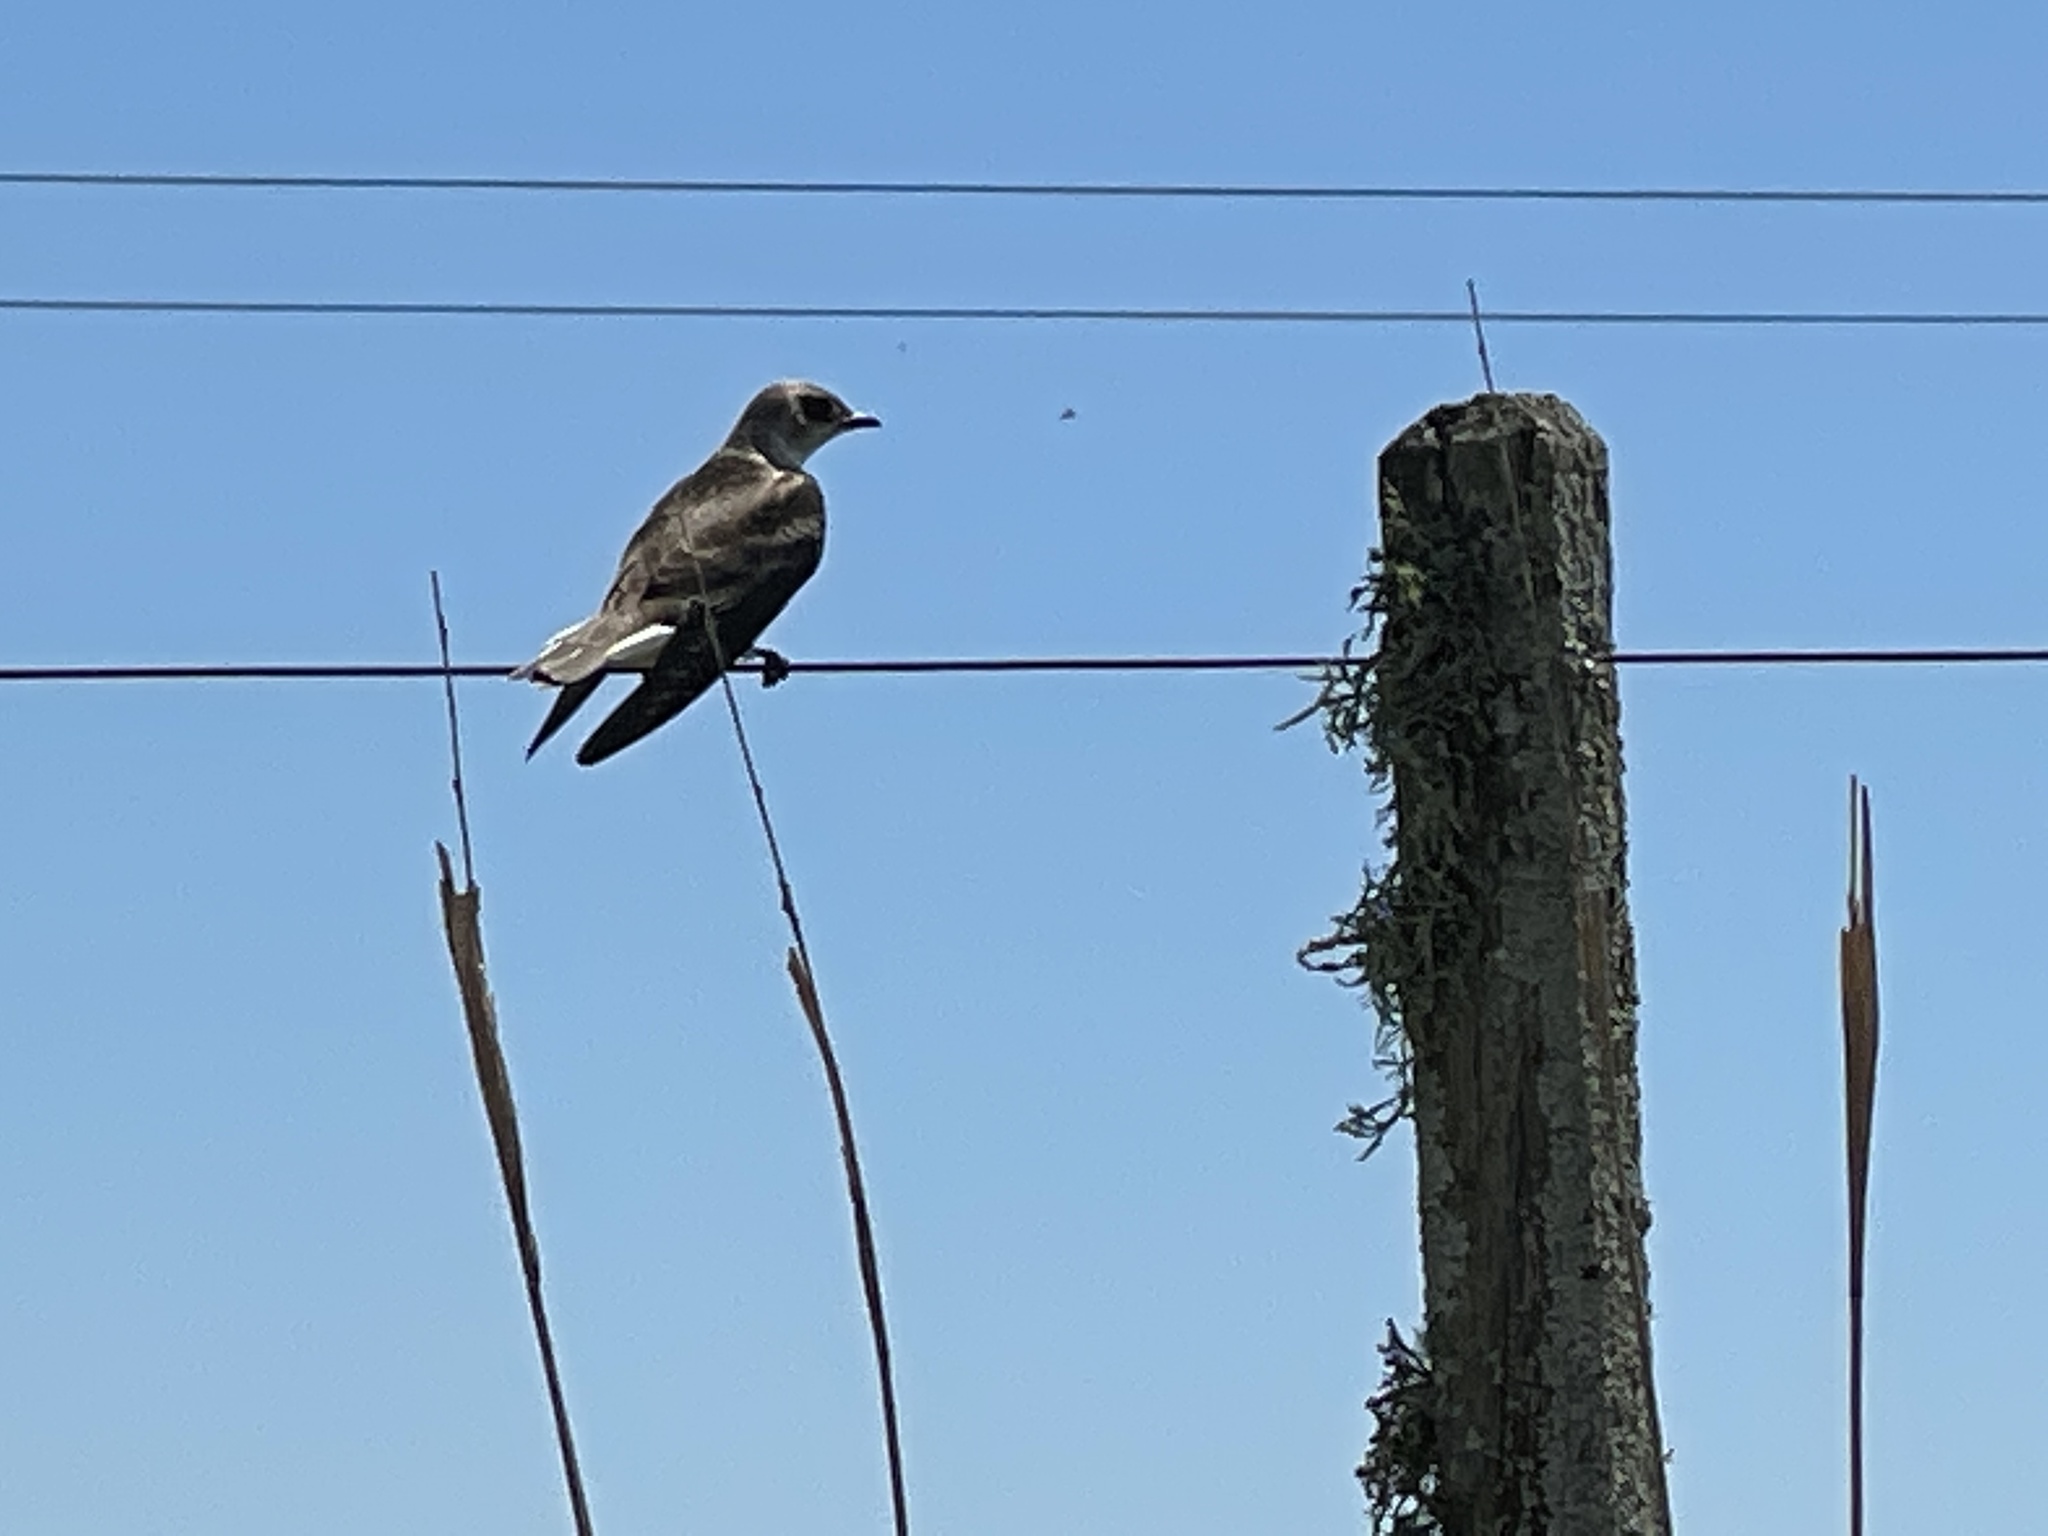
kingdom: Animalia
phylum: Chordata
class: Aves
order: Passeriformes
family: Hirundinidae
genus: Progne
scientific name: Progne tapera
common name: Brown-chested martin
